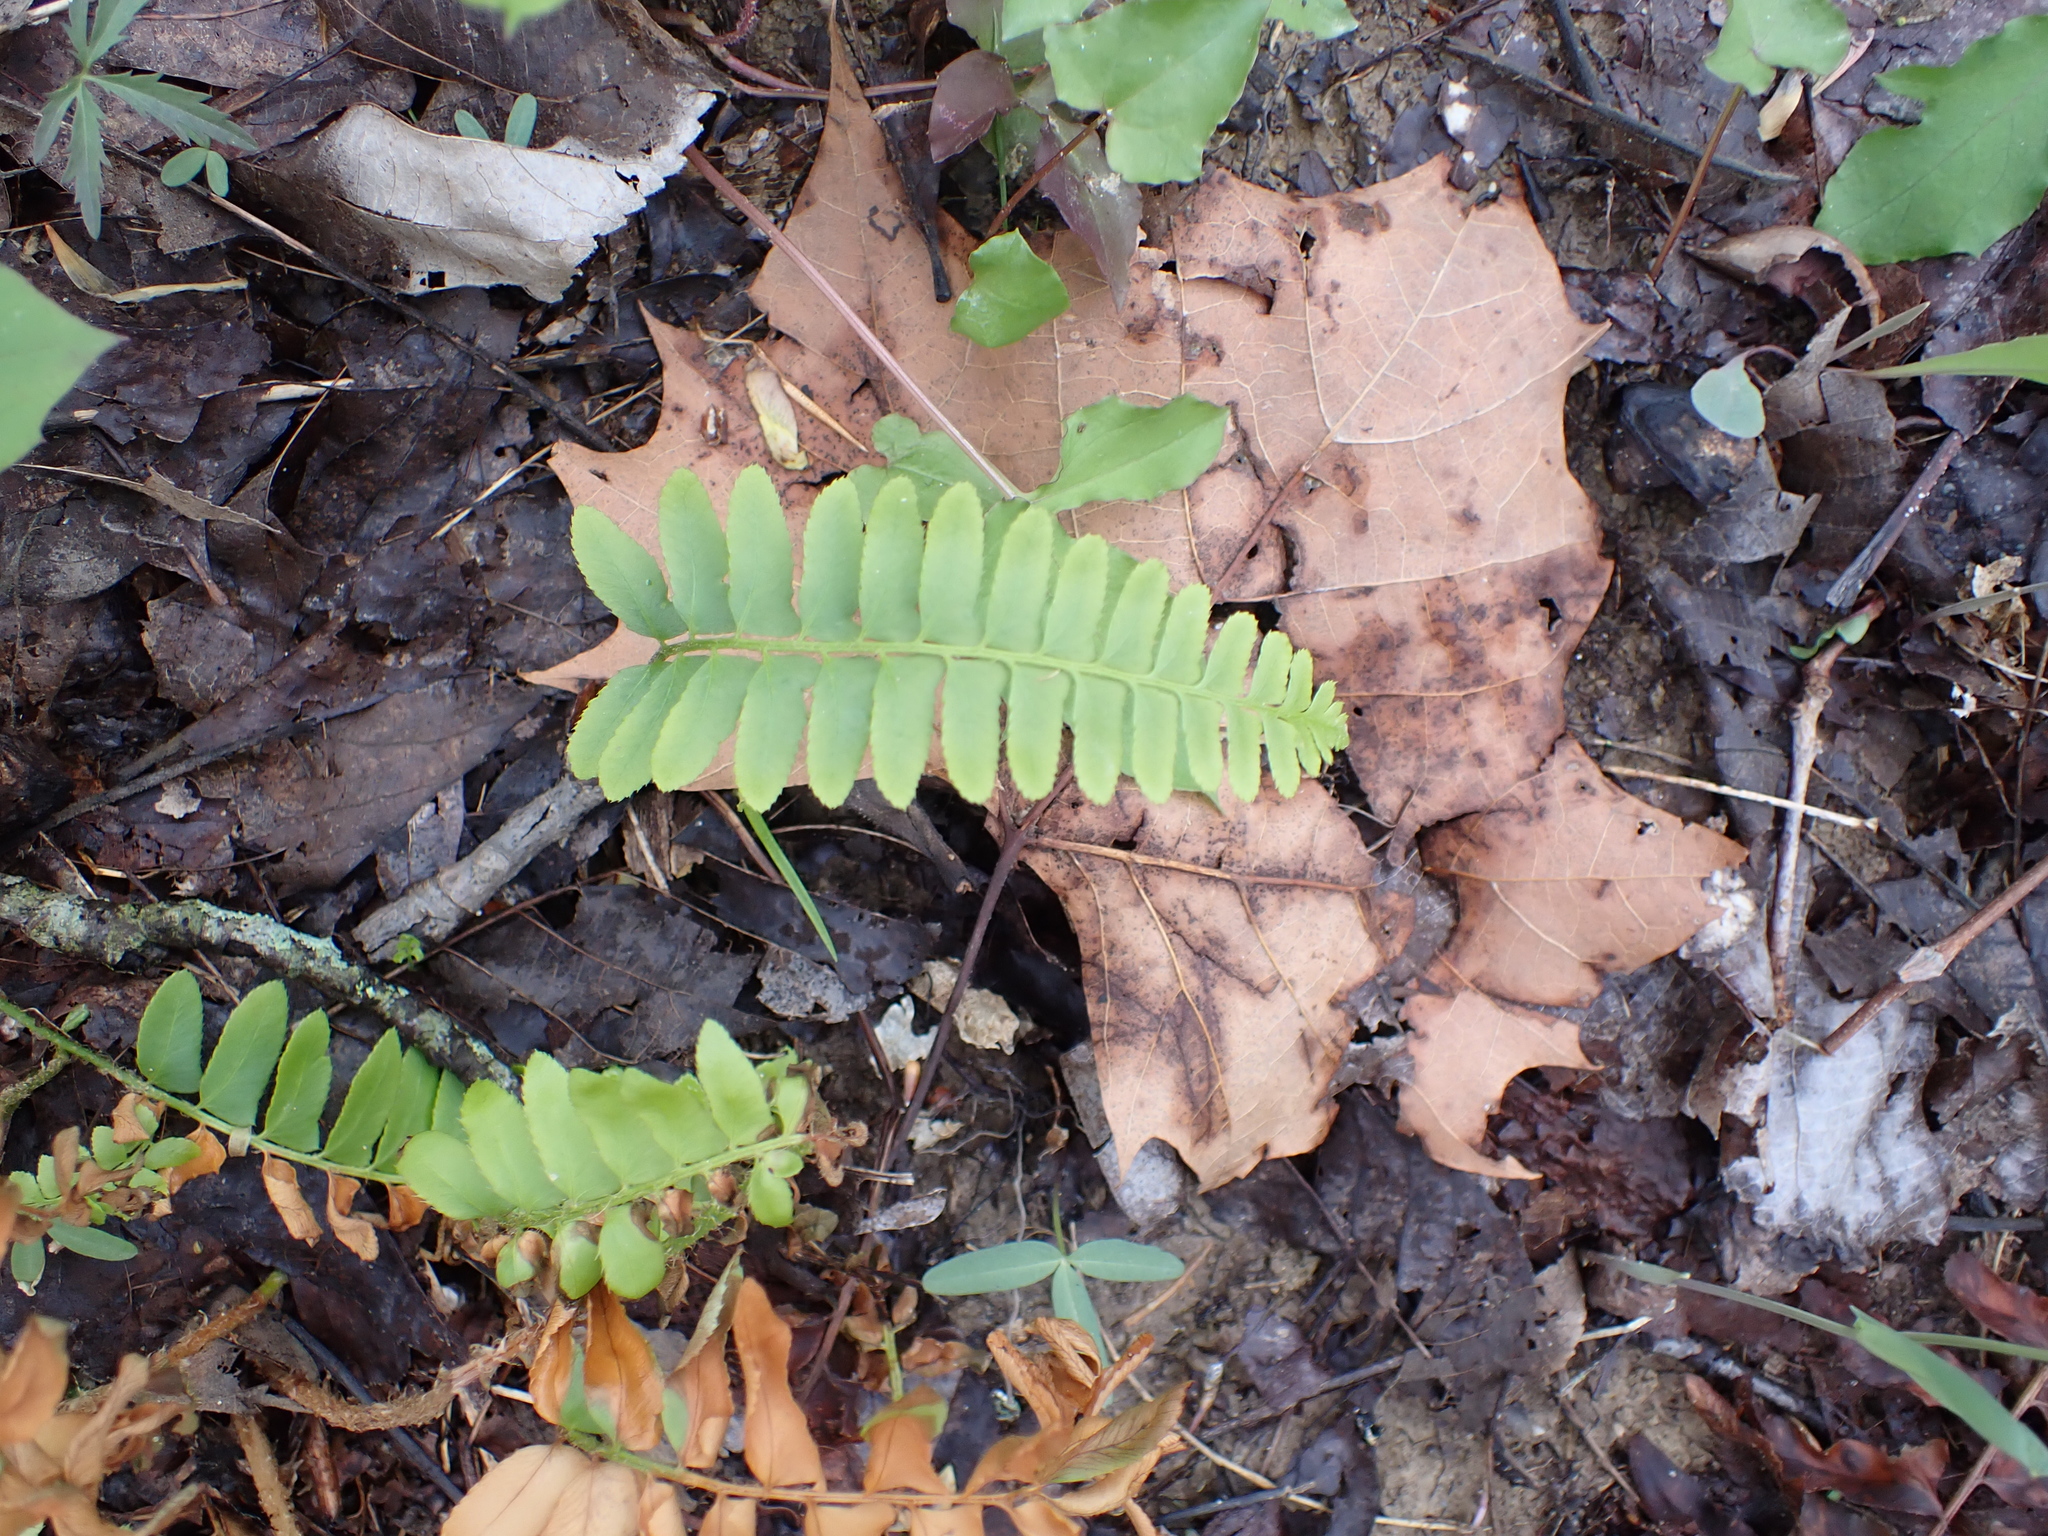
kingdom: Plantae
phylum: Tracheophyta
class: Polypodiopsida
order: Polypodiales
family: Dryopteridaceae
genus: Polystichum
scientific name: Polystichum acrostichoides
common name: Christmas fern
